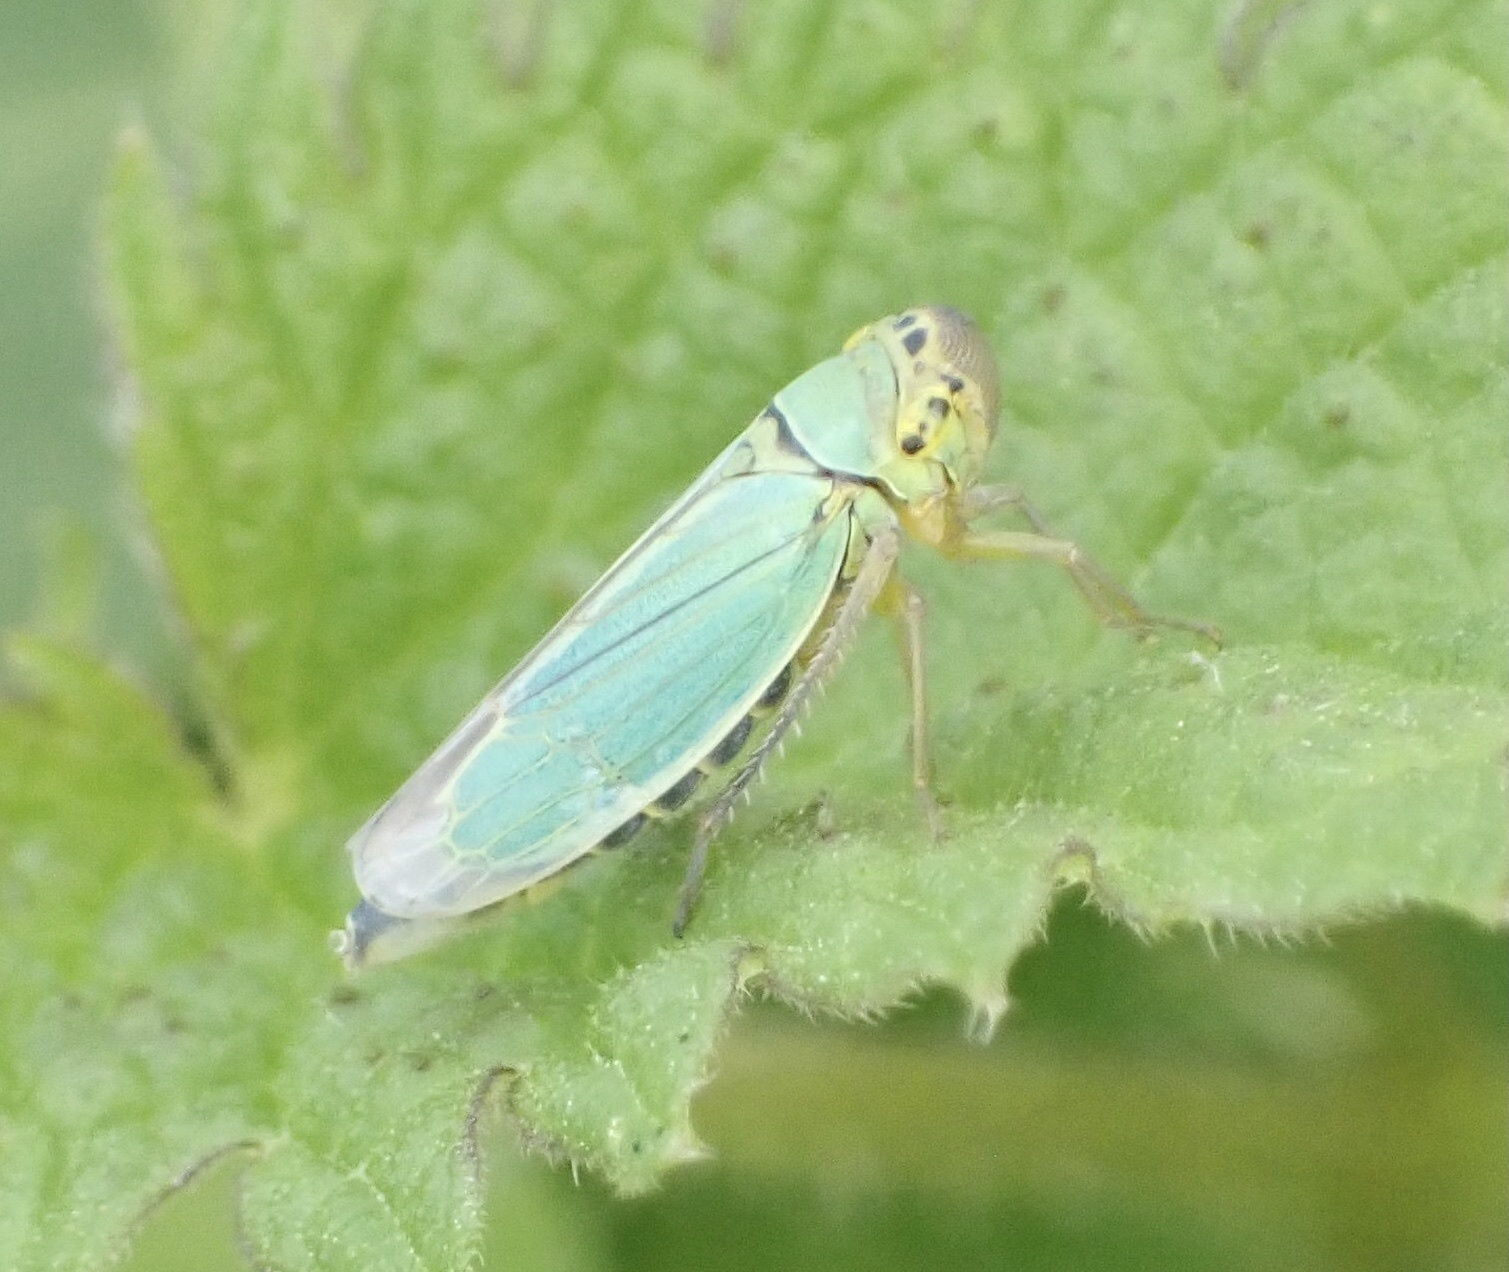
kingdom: Animalia
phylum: Arthropoda
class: Insecta
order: Hemiptera
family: Cicadellidae
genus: Cicadella
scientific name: Cicadella viridis
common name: Leafhopper
